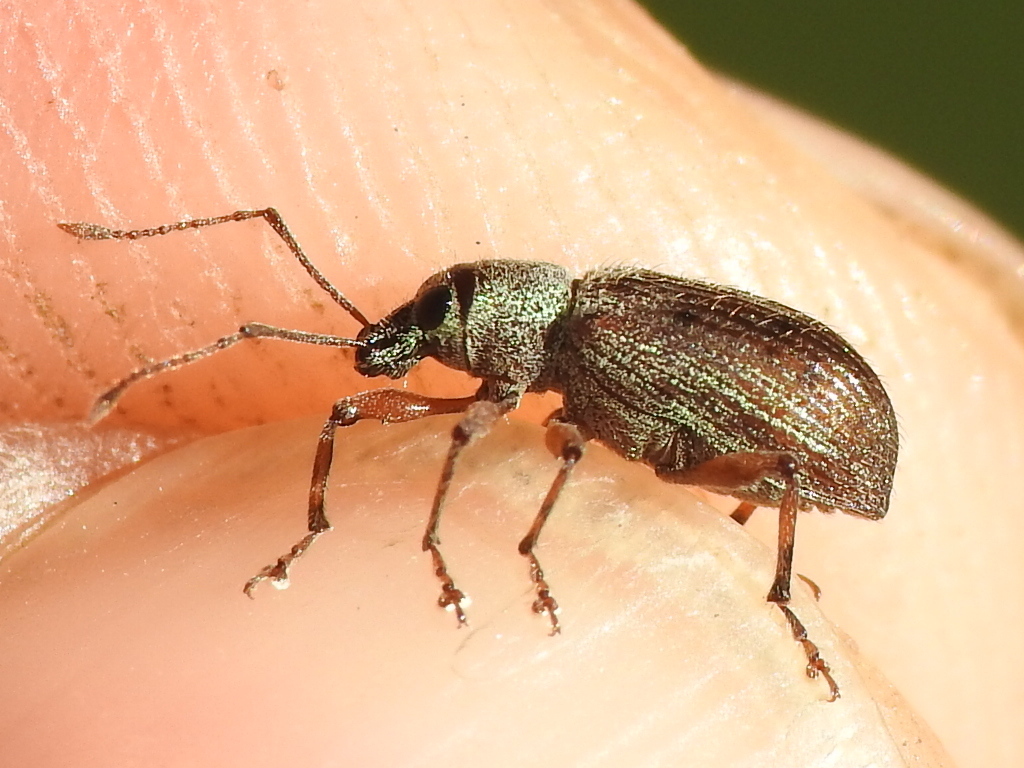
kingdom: Animalia
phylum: Arthropoda
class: Insecta
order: Coleoptera
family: Curculionidae
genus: Cyrtepistomus
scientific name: Cyrtepistomus castaneus
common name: Weevil
